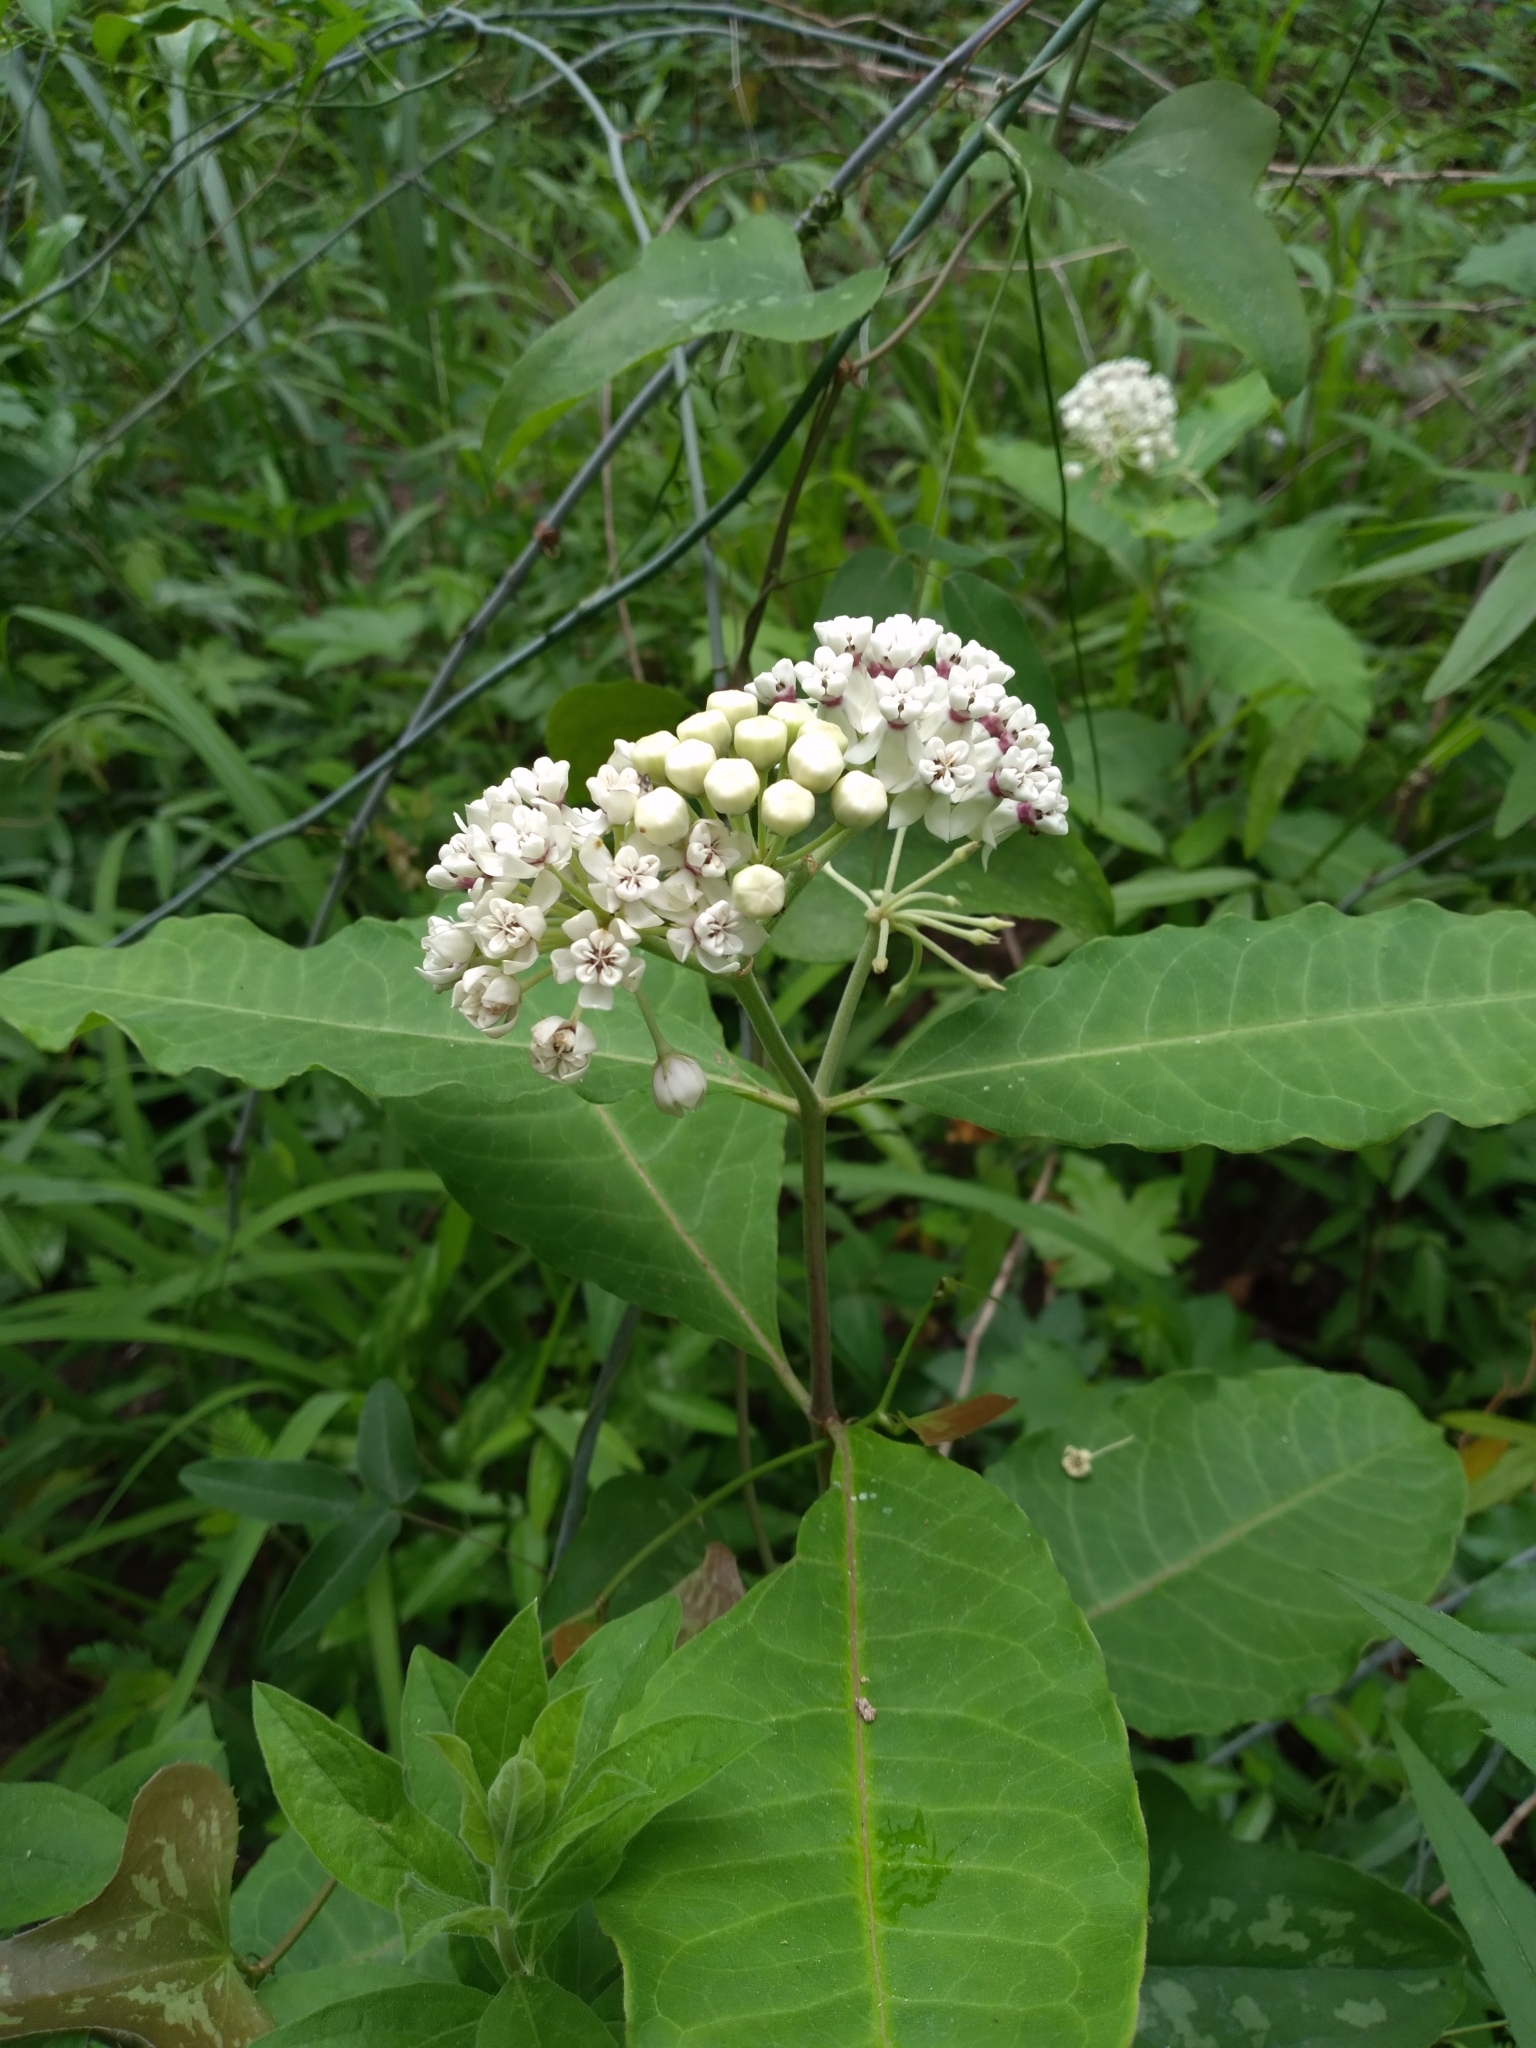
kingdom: Plantae
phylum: Tracheophyta
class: Magnoliopsida
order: Gentianales
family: Apocynaceae
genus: Asclepias
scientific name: Asclepias variegata
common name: Variegated milkweed
